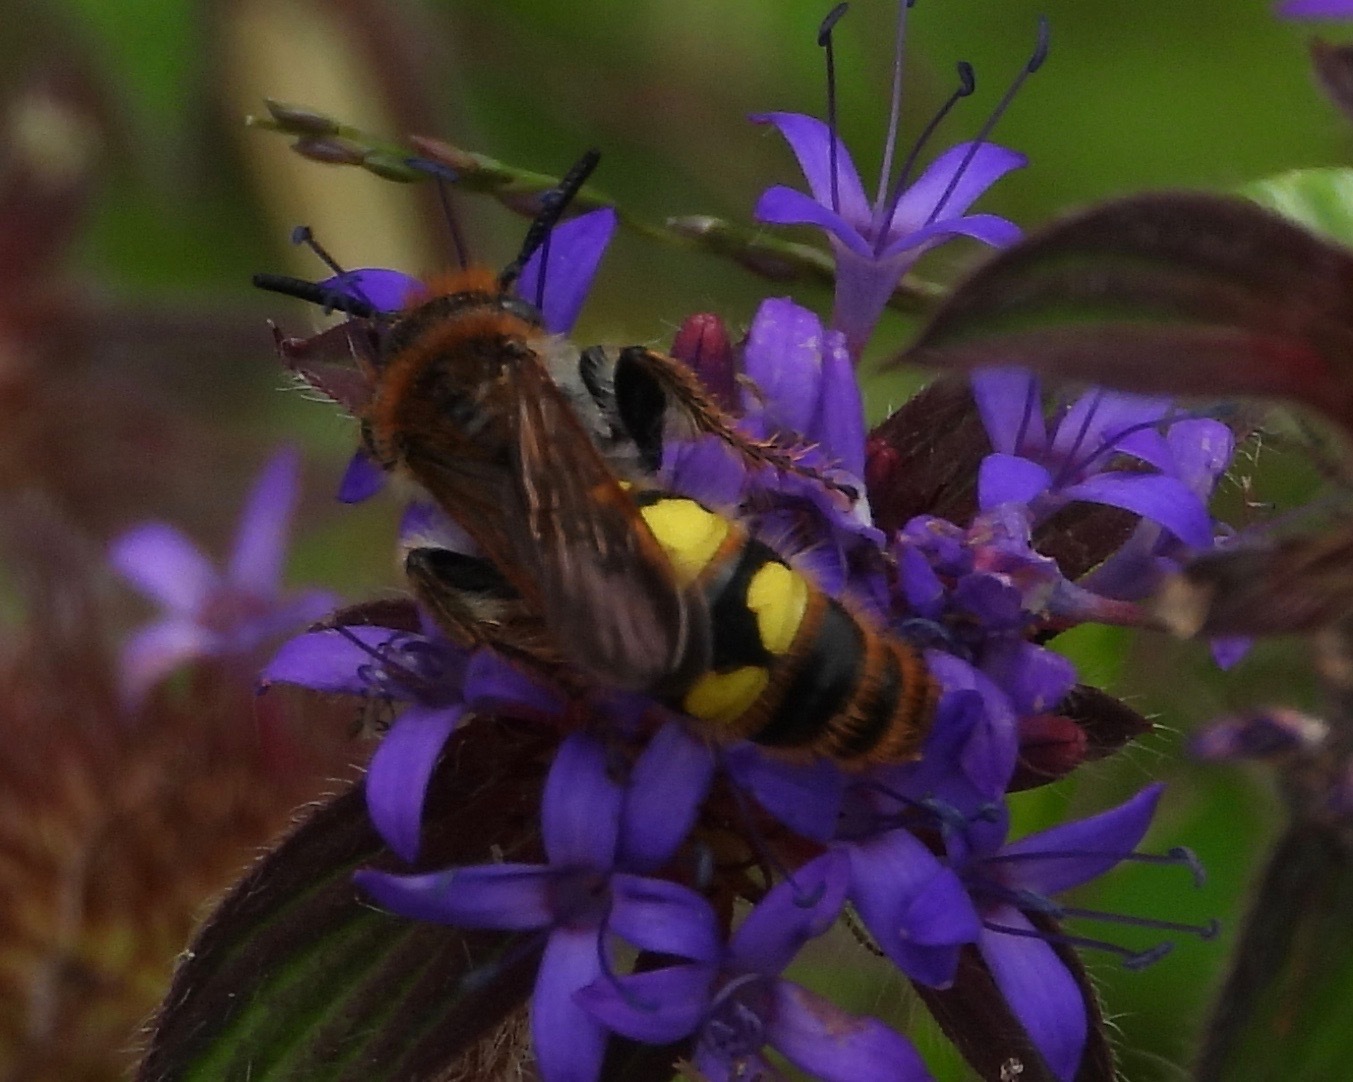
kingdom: Animalia
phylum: Arthropoda
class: Insecta
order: Hymenoptera
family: Scoliidae
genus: Xantocampsomeris
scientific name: Xantocampsomeris limosa
